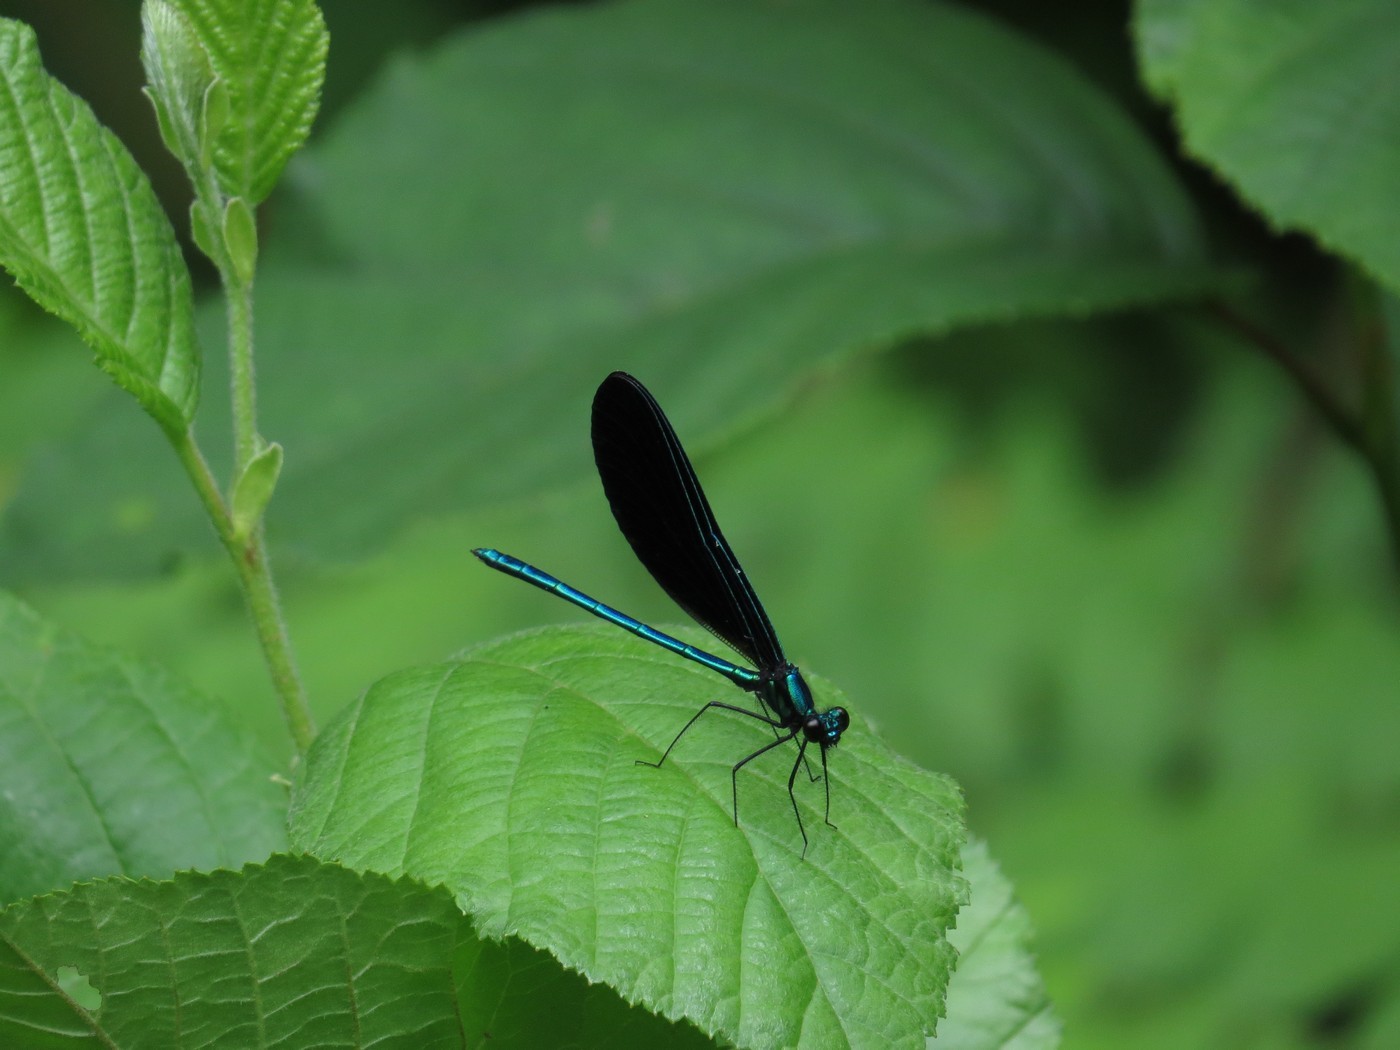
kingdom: Animalia
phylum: Arthropoda
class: Insecta
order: Odonata
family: Calopterygidae
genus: Calopteryx
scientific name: Calopteryx maculata
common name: Ebony jewelwing
